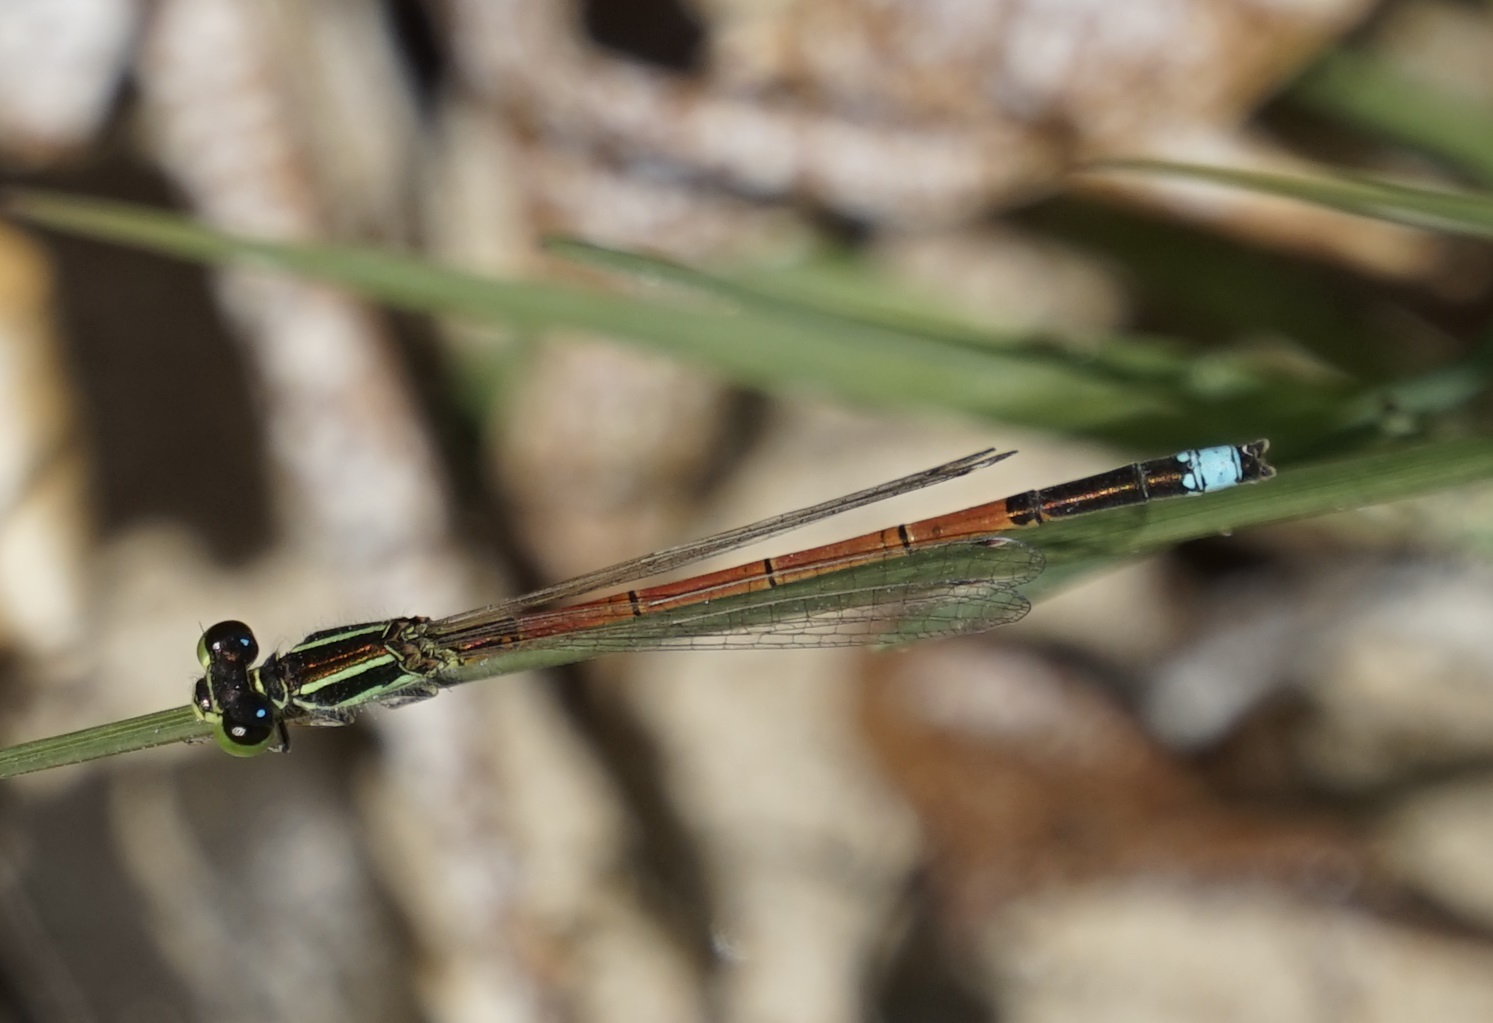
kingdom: Animalia
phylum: Arthropoda
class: Insecta
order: Odonata
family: Coenagrionidae
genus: Ischnura
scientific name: Ischnura aurora
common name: Gossamer damselfly
